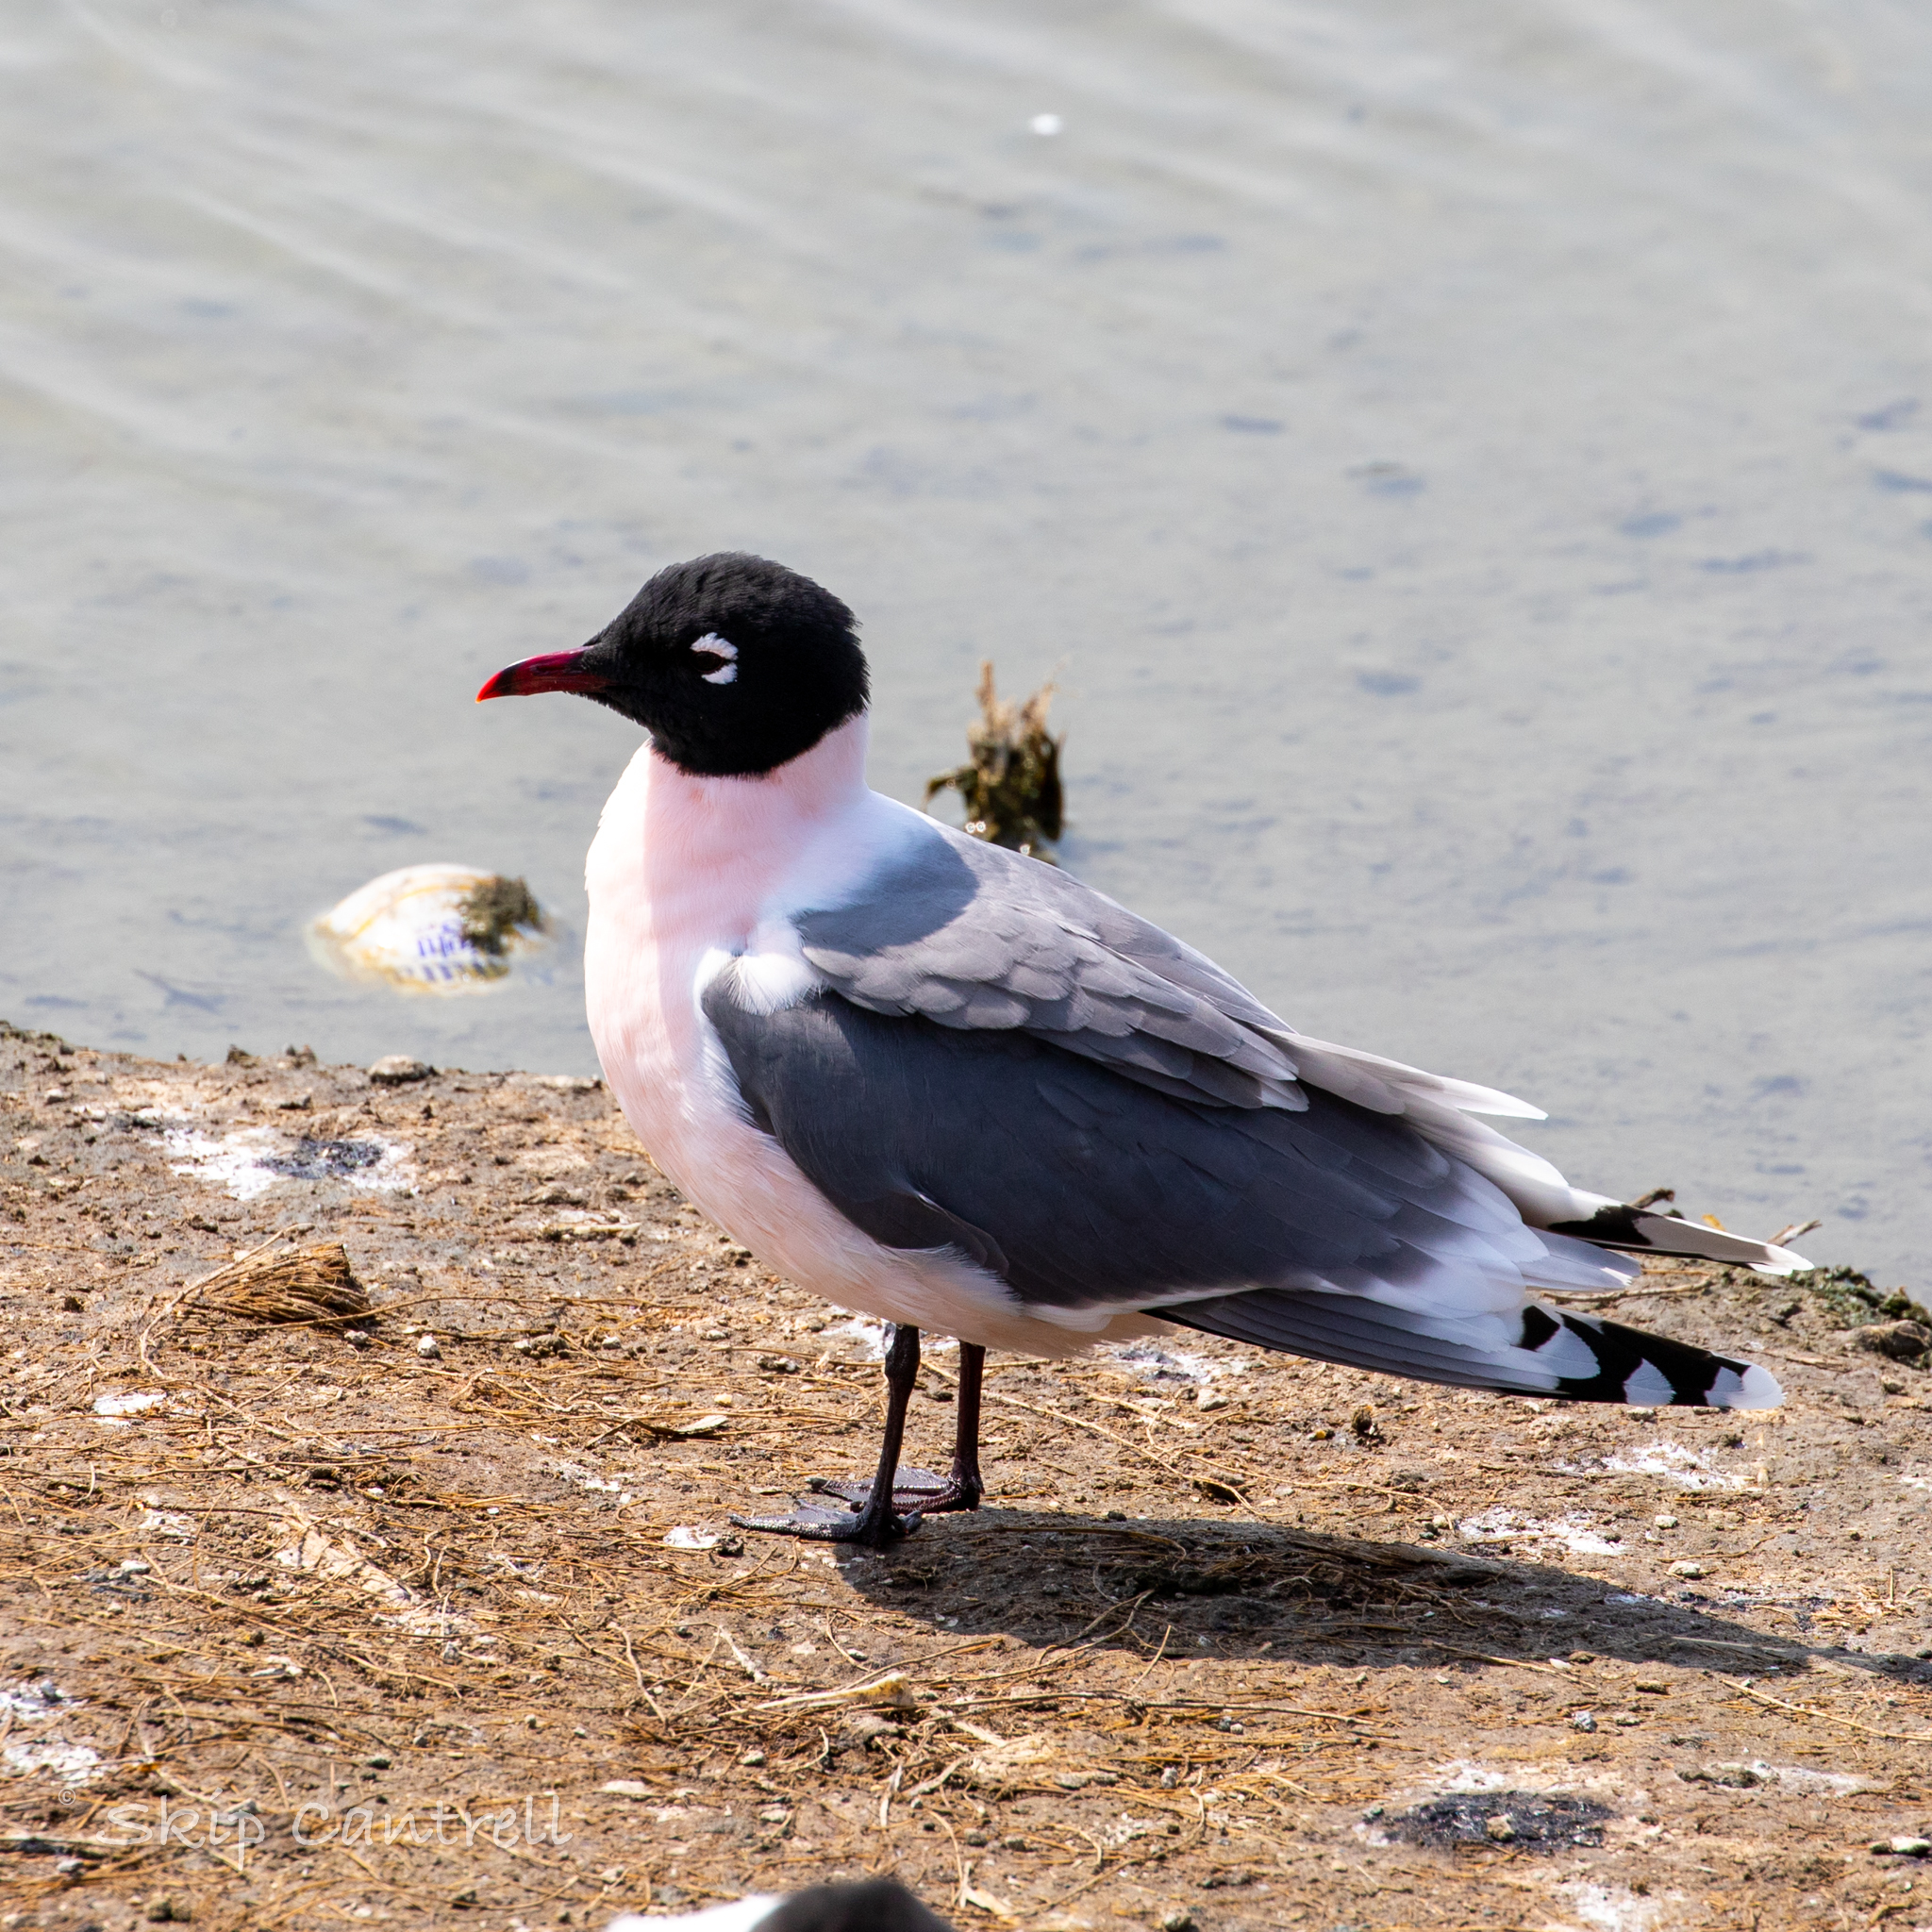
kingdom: Animalia
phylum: Chordata
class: Aves
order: Charadriiformes
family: Laridae
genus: Leucophaeus
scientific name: Leucophaeus pipixcan
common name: Franklin's gull
